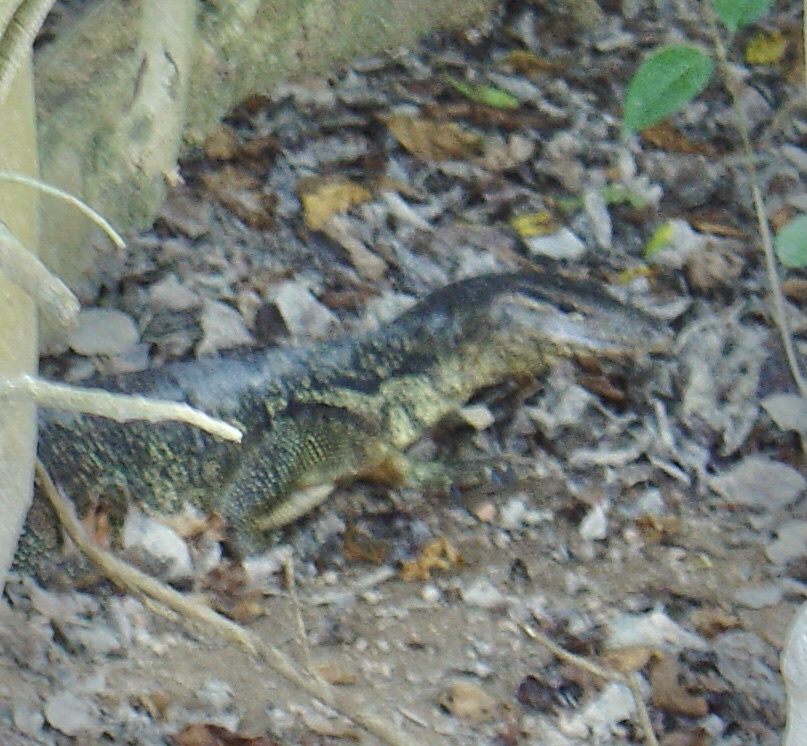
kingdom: Animalia
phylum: Chordata
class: Squamata
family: Varanidae
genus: Varanus
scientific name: Varanus salvator
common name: Common water monitor
